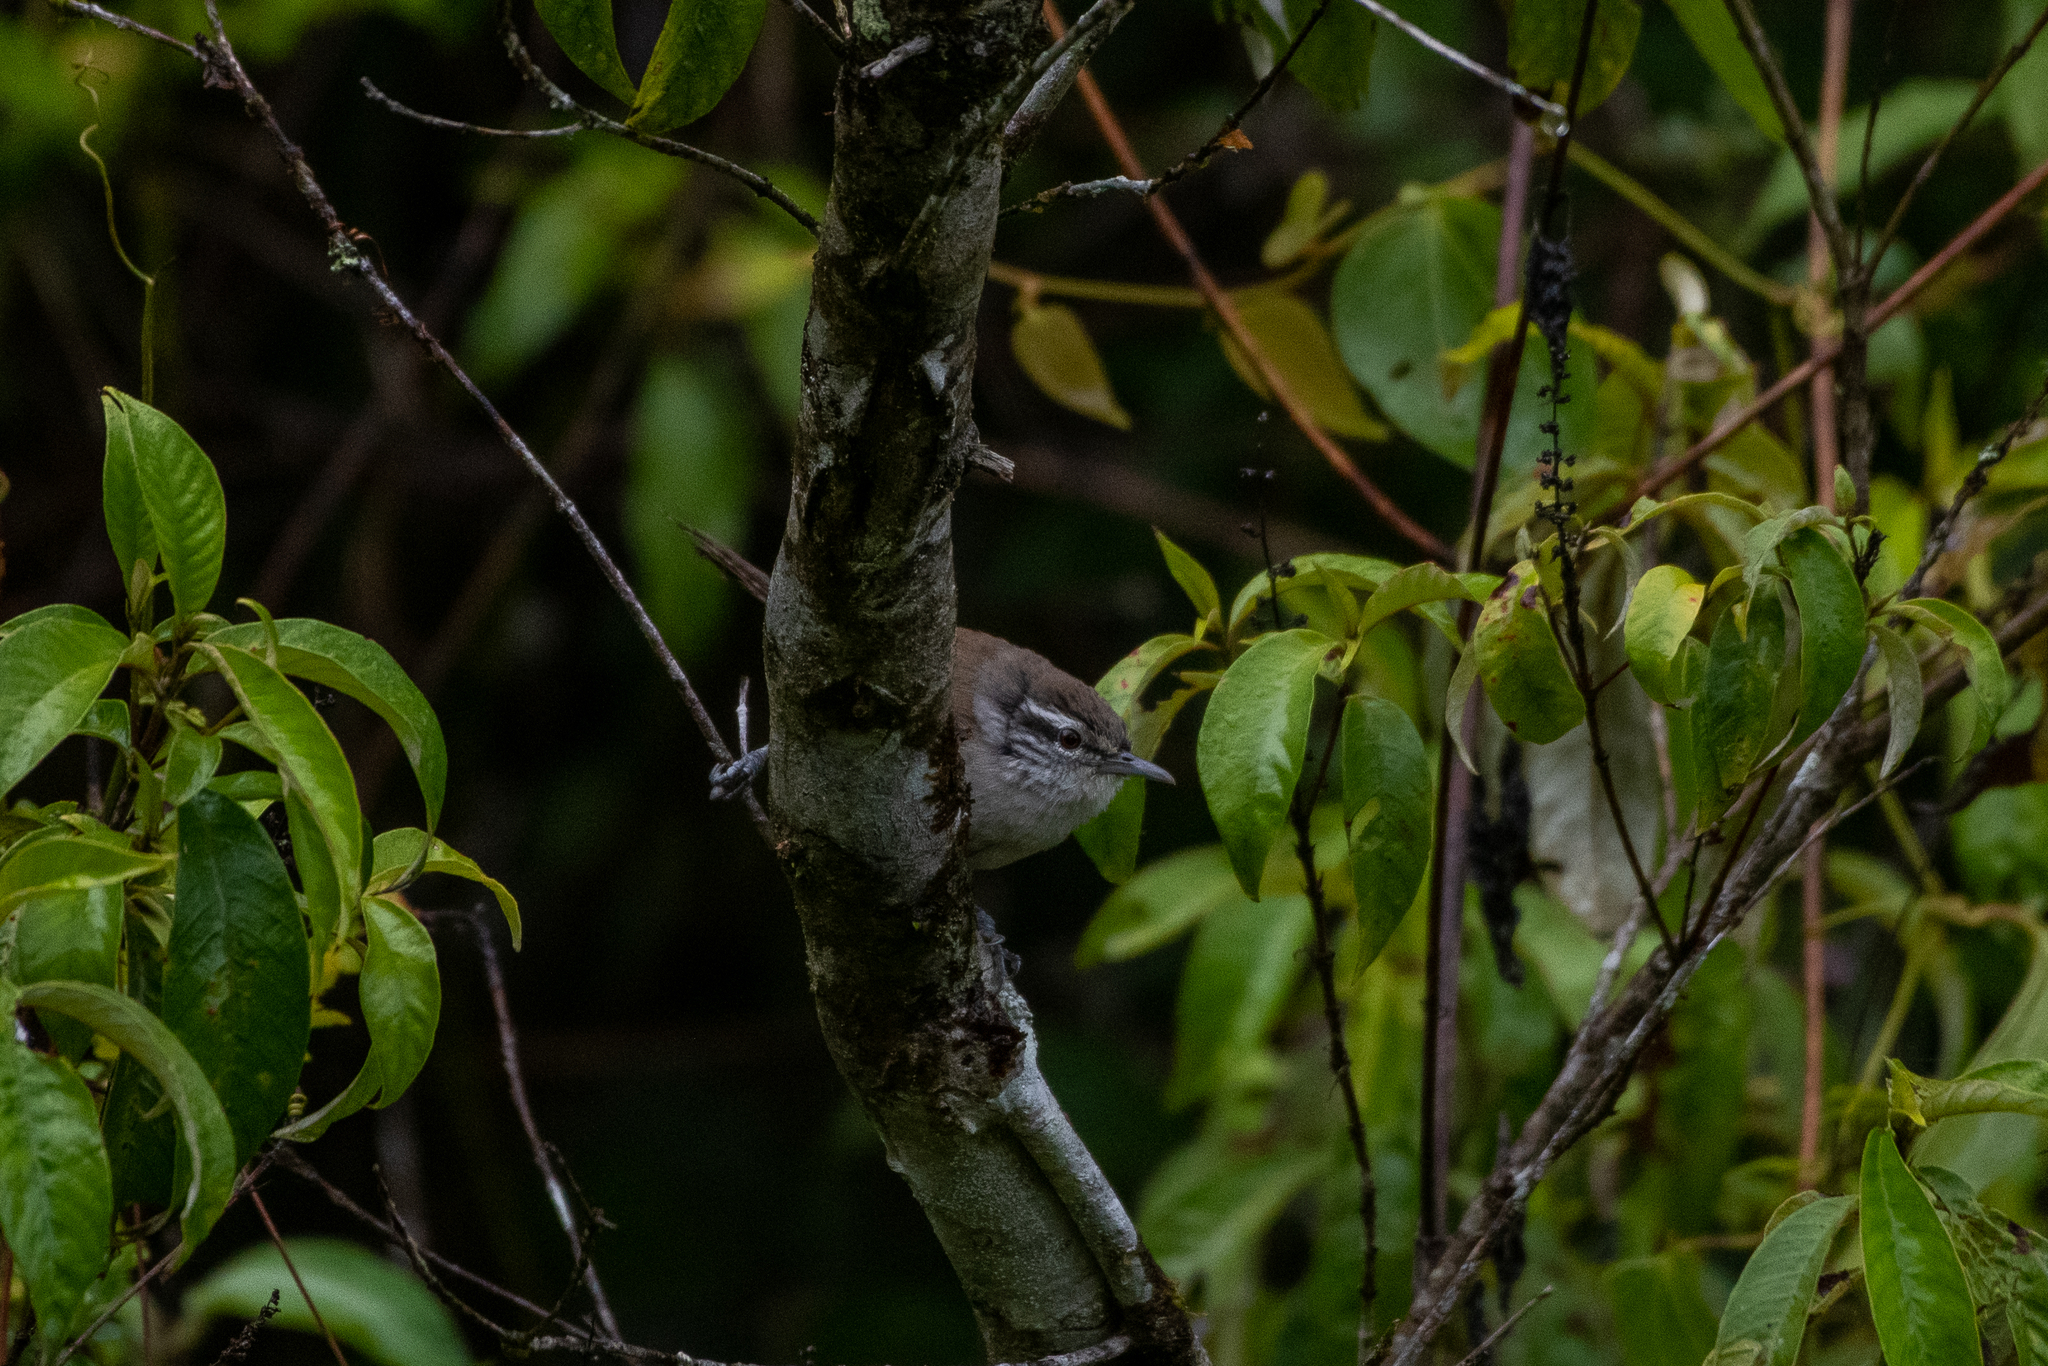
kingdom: Animalia
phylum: Chordata
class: Aves
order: Passeriformes
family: Troglodytidae
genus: Cantorchilus
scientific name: Cantorchilus modestus
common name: Cabanis's wren
